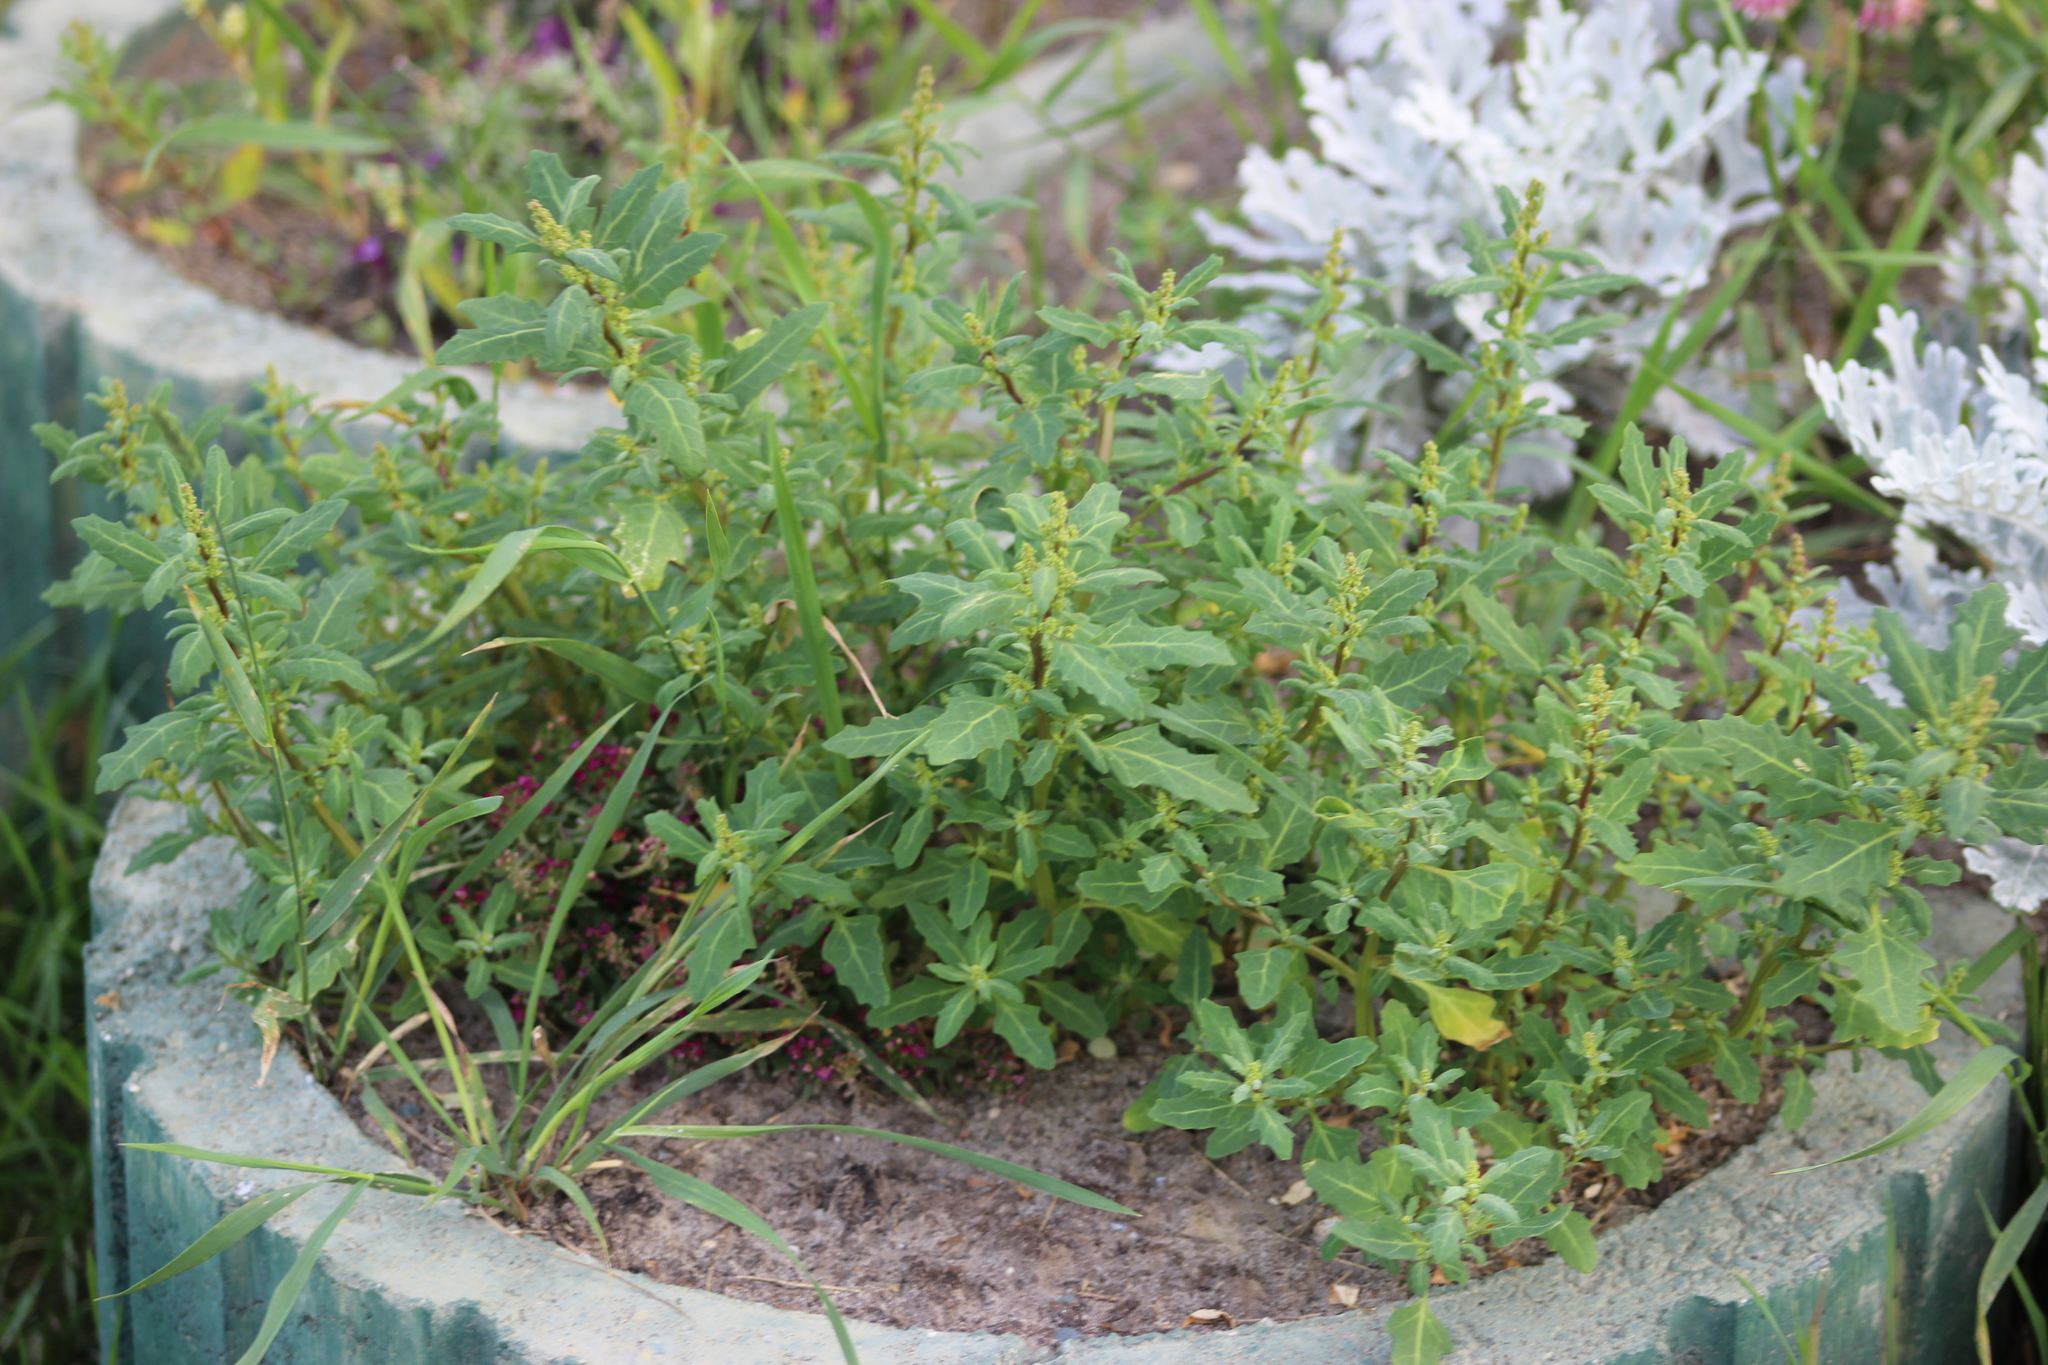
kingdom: Plantae
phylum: Tracheophyta
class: Magnoliopsida
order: Caryophyllales
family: Amaranthaceae
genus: Oxybasis
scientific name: Oxybasis glauca
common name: Glaucous goosefoot
